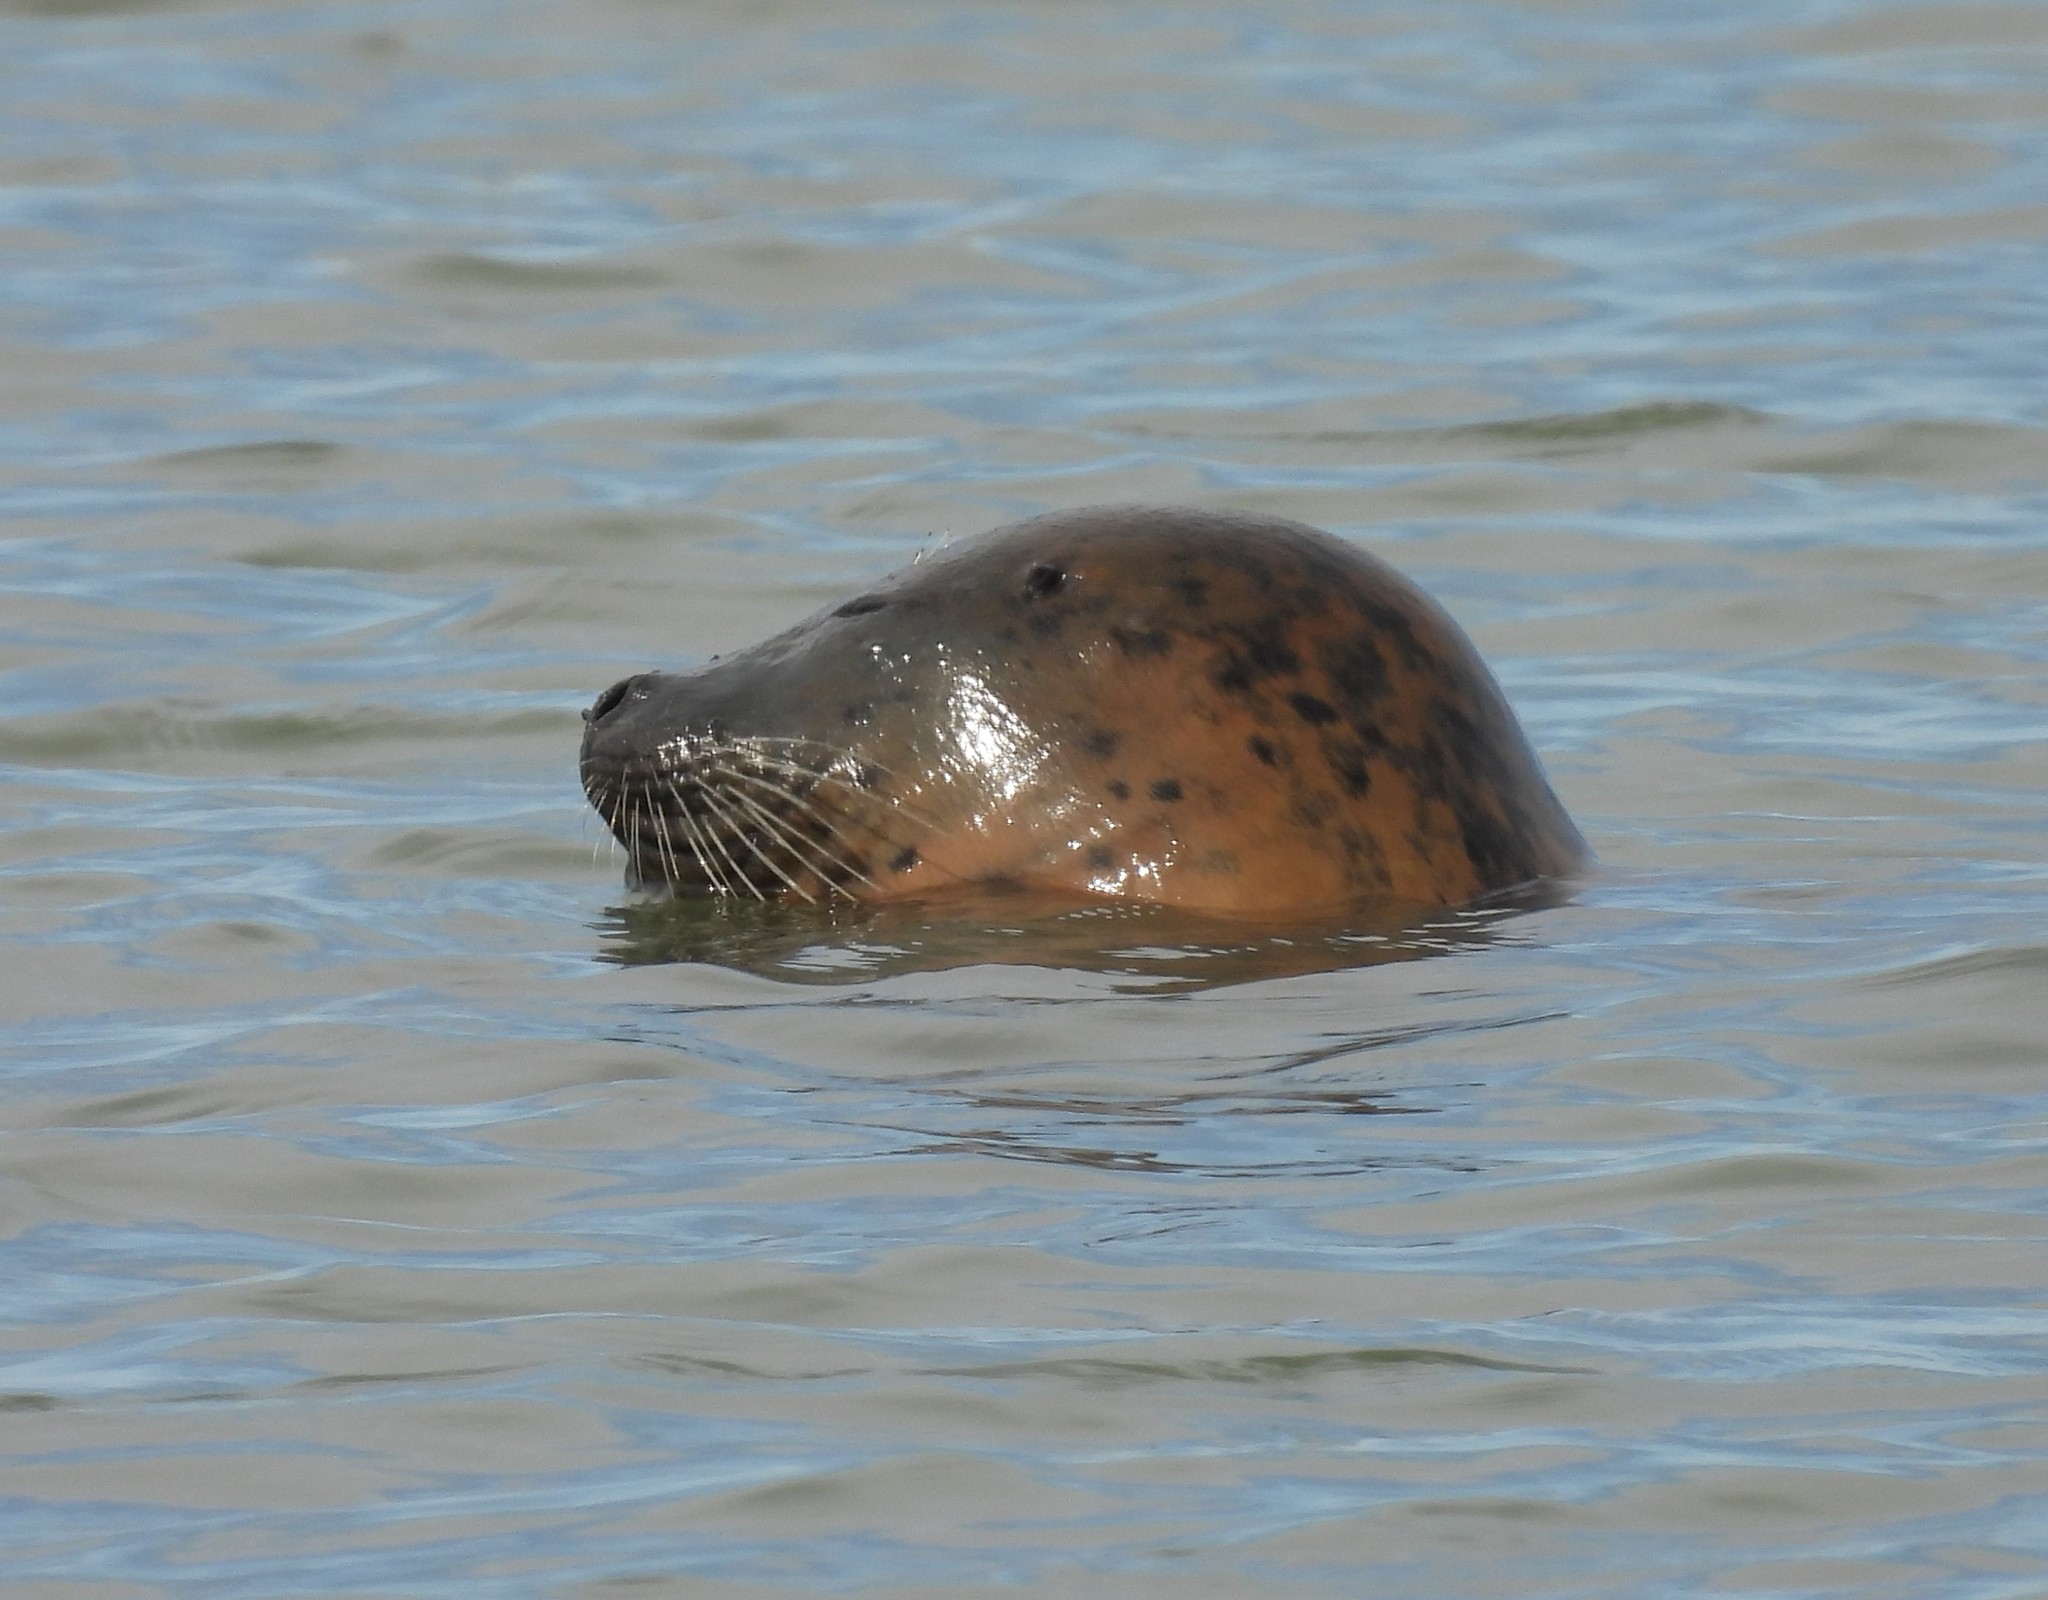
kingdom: Animalia
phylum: Chordata
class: Mammalia
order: Carnivora
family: Phocidae
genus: Phoca
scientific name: Phoca vitulina
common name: Harbor seal
